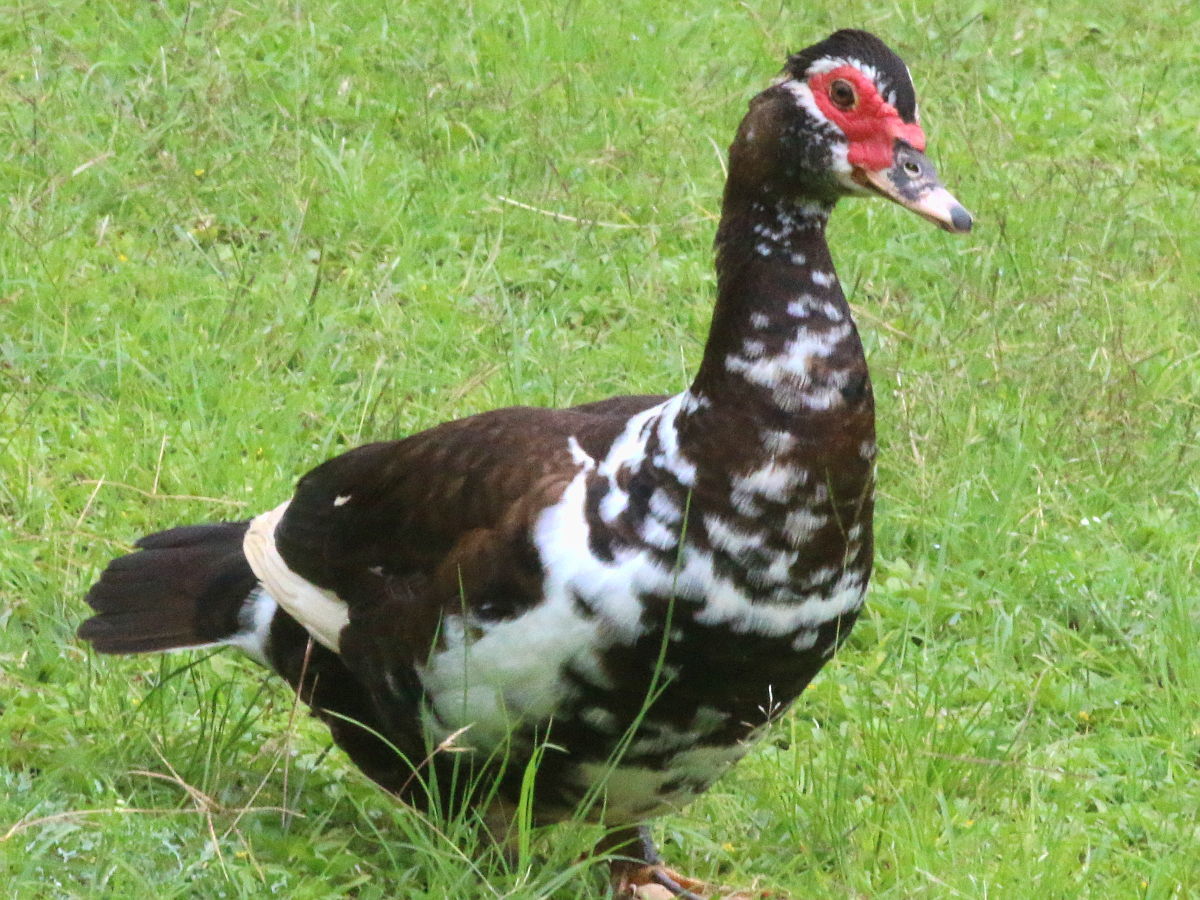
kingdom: Animalia
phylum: Chordata
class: Aves
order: Anseriformes
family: Anatidae
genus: Cairina
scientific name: Cairina moschata
